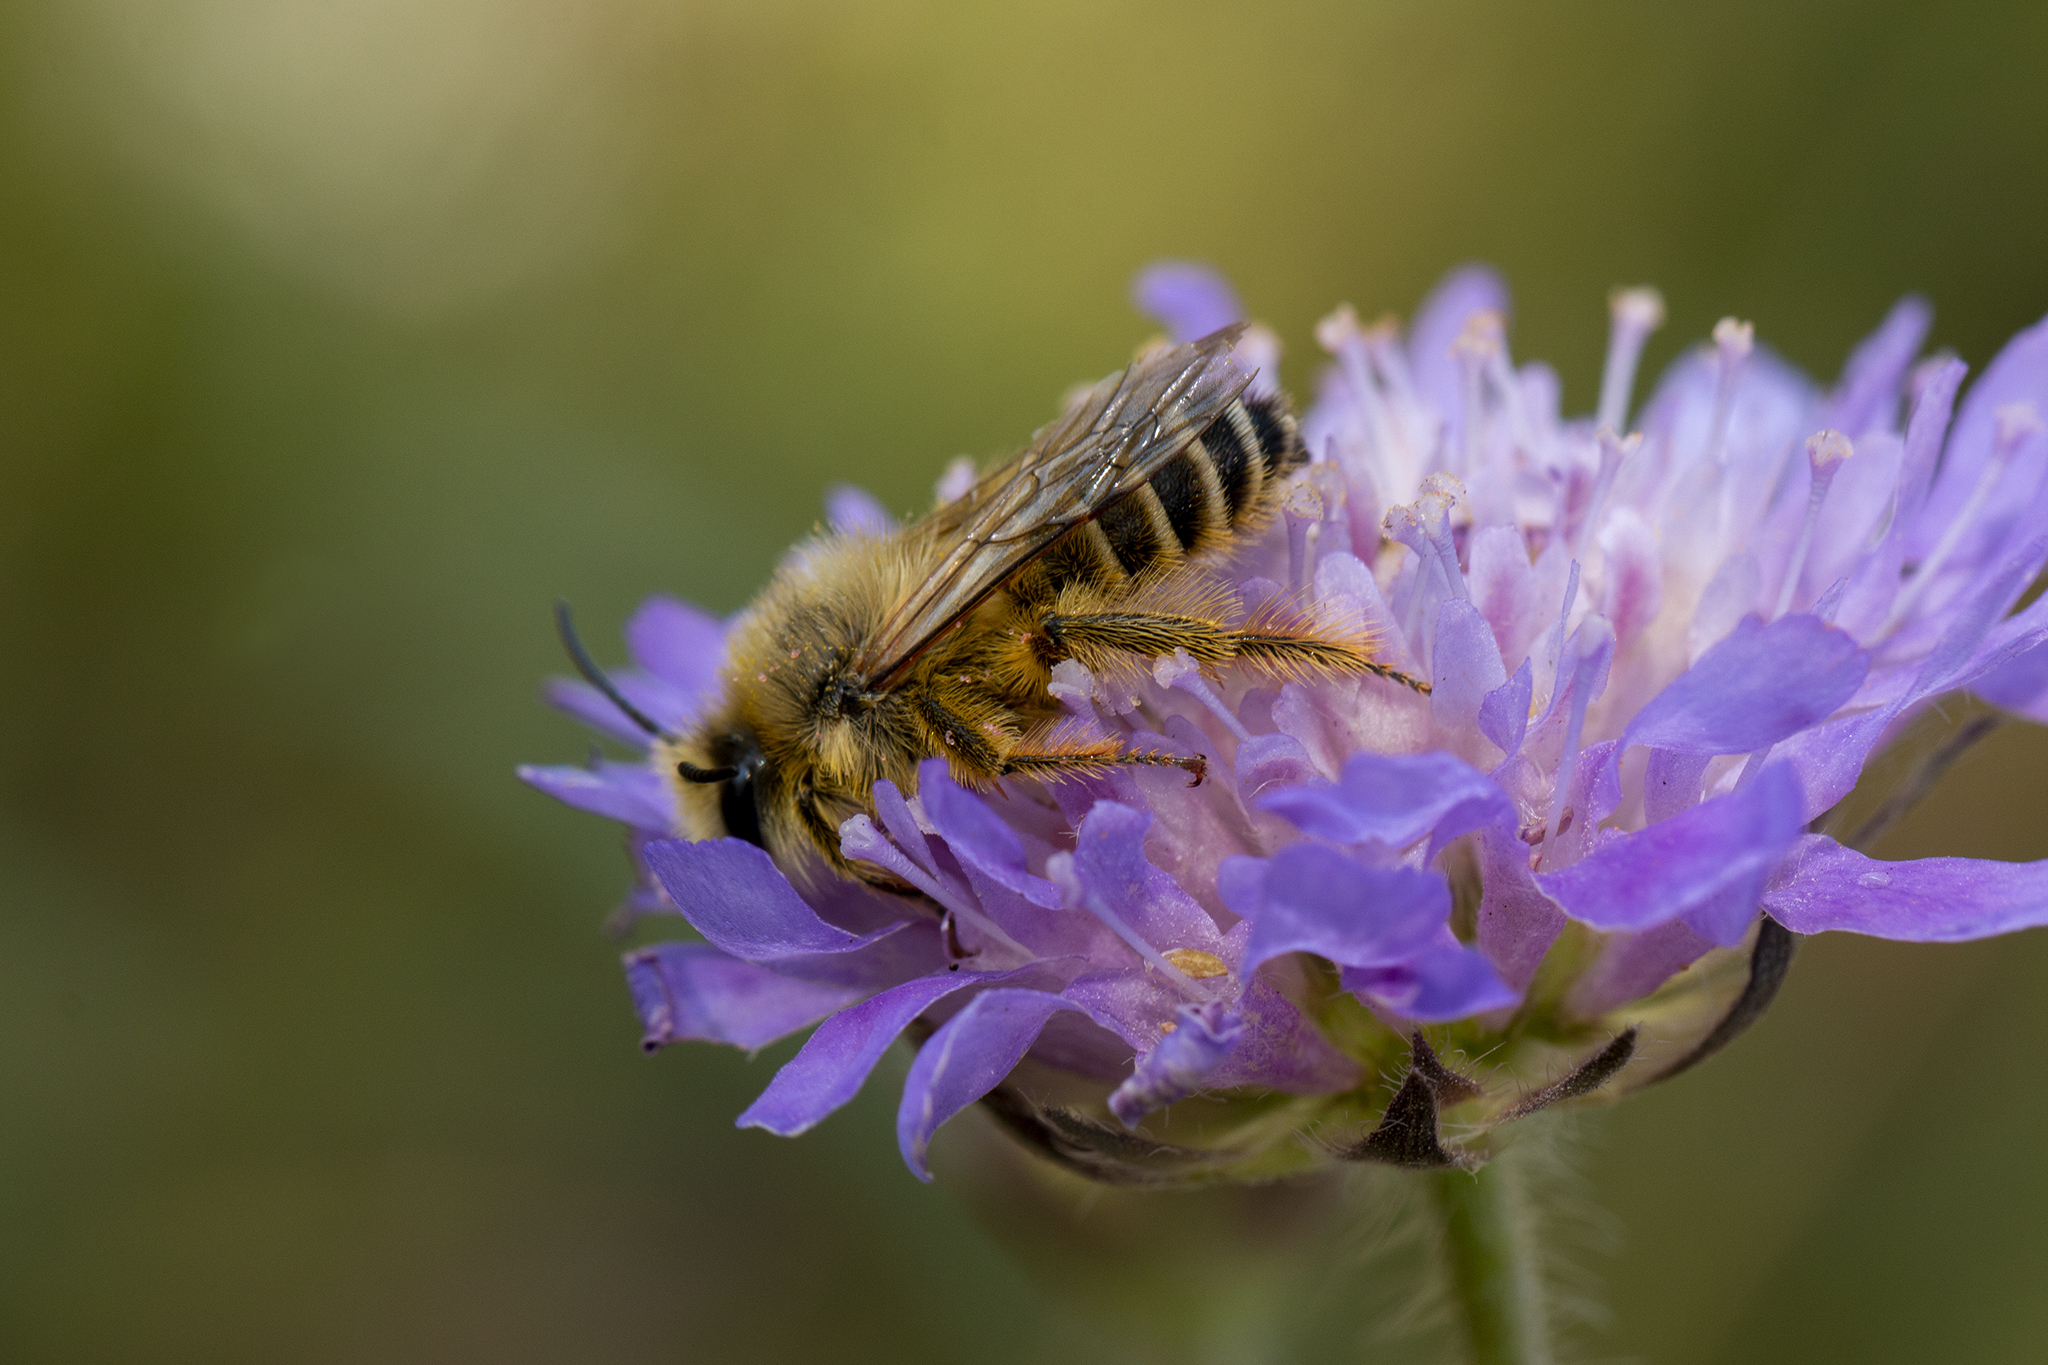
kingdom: Animalia
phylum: Arthropoda
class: Insecta
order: Hymenoptera
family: Melittidae
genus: Dasypoda
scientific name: Dasypoda hirtipes
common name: Pantaloon bee
